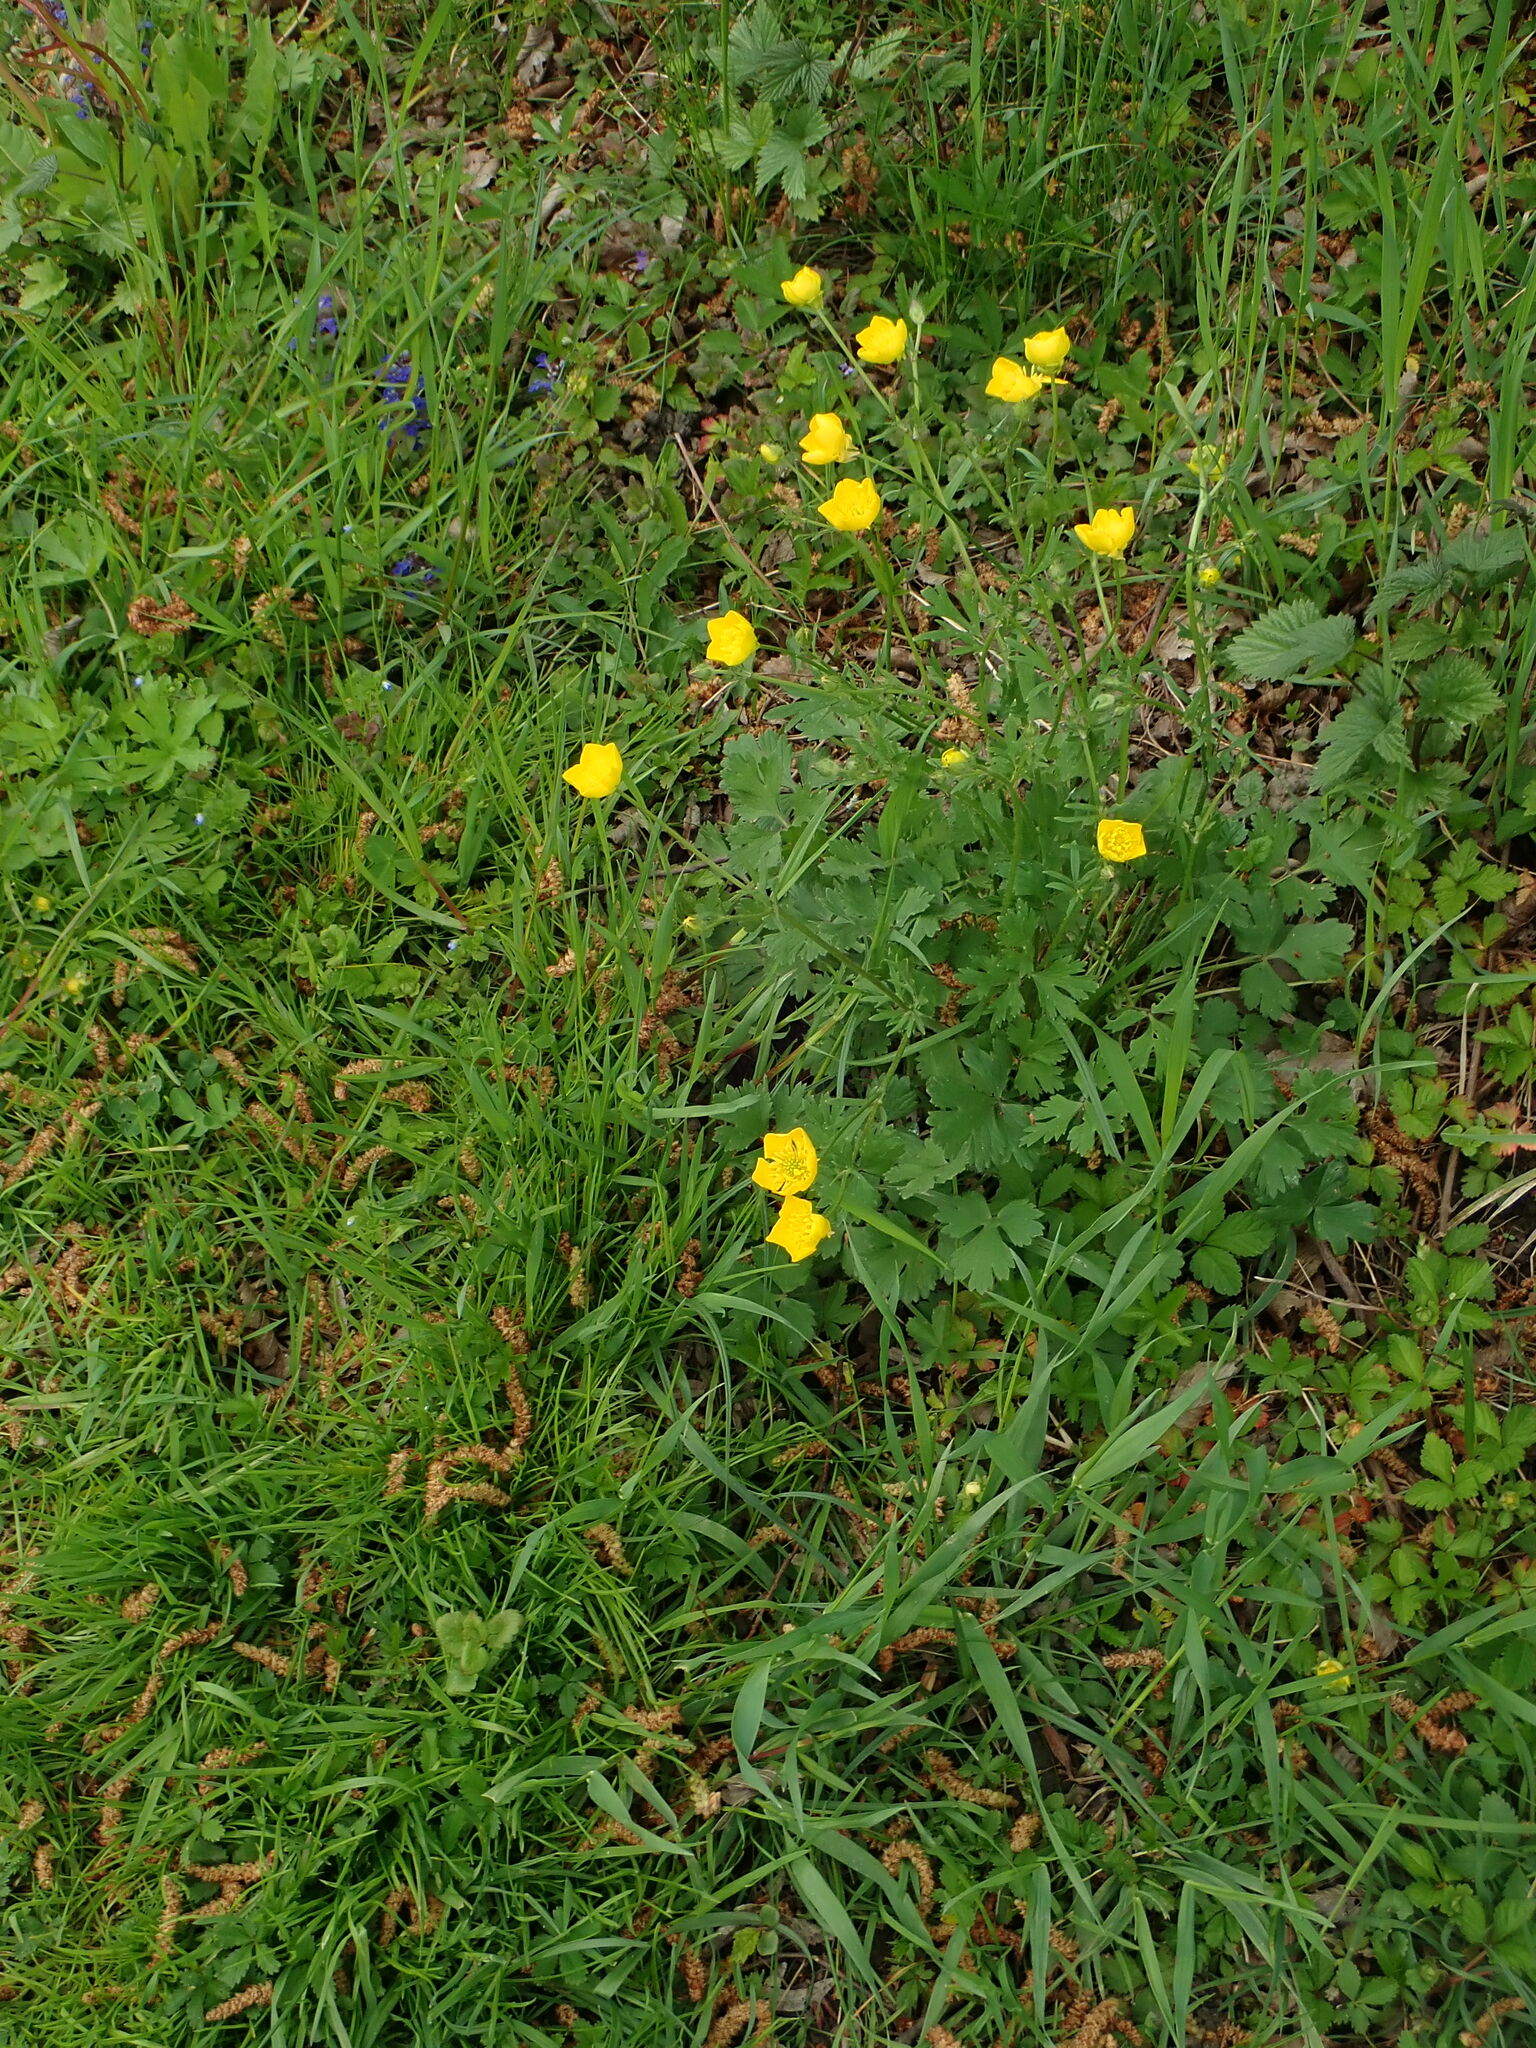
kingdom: Plantae
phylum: Tracheophyta
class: Magnoliopsida
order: Ranunculales
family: Ranunculaceae
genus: Ranunculus
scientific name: Ranunculus bulbosus
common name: Bulbous buttercup
